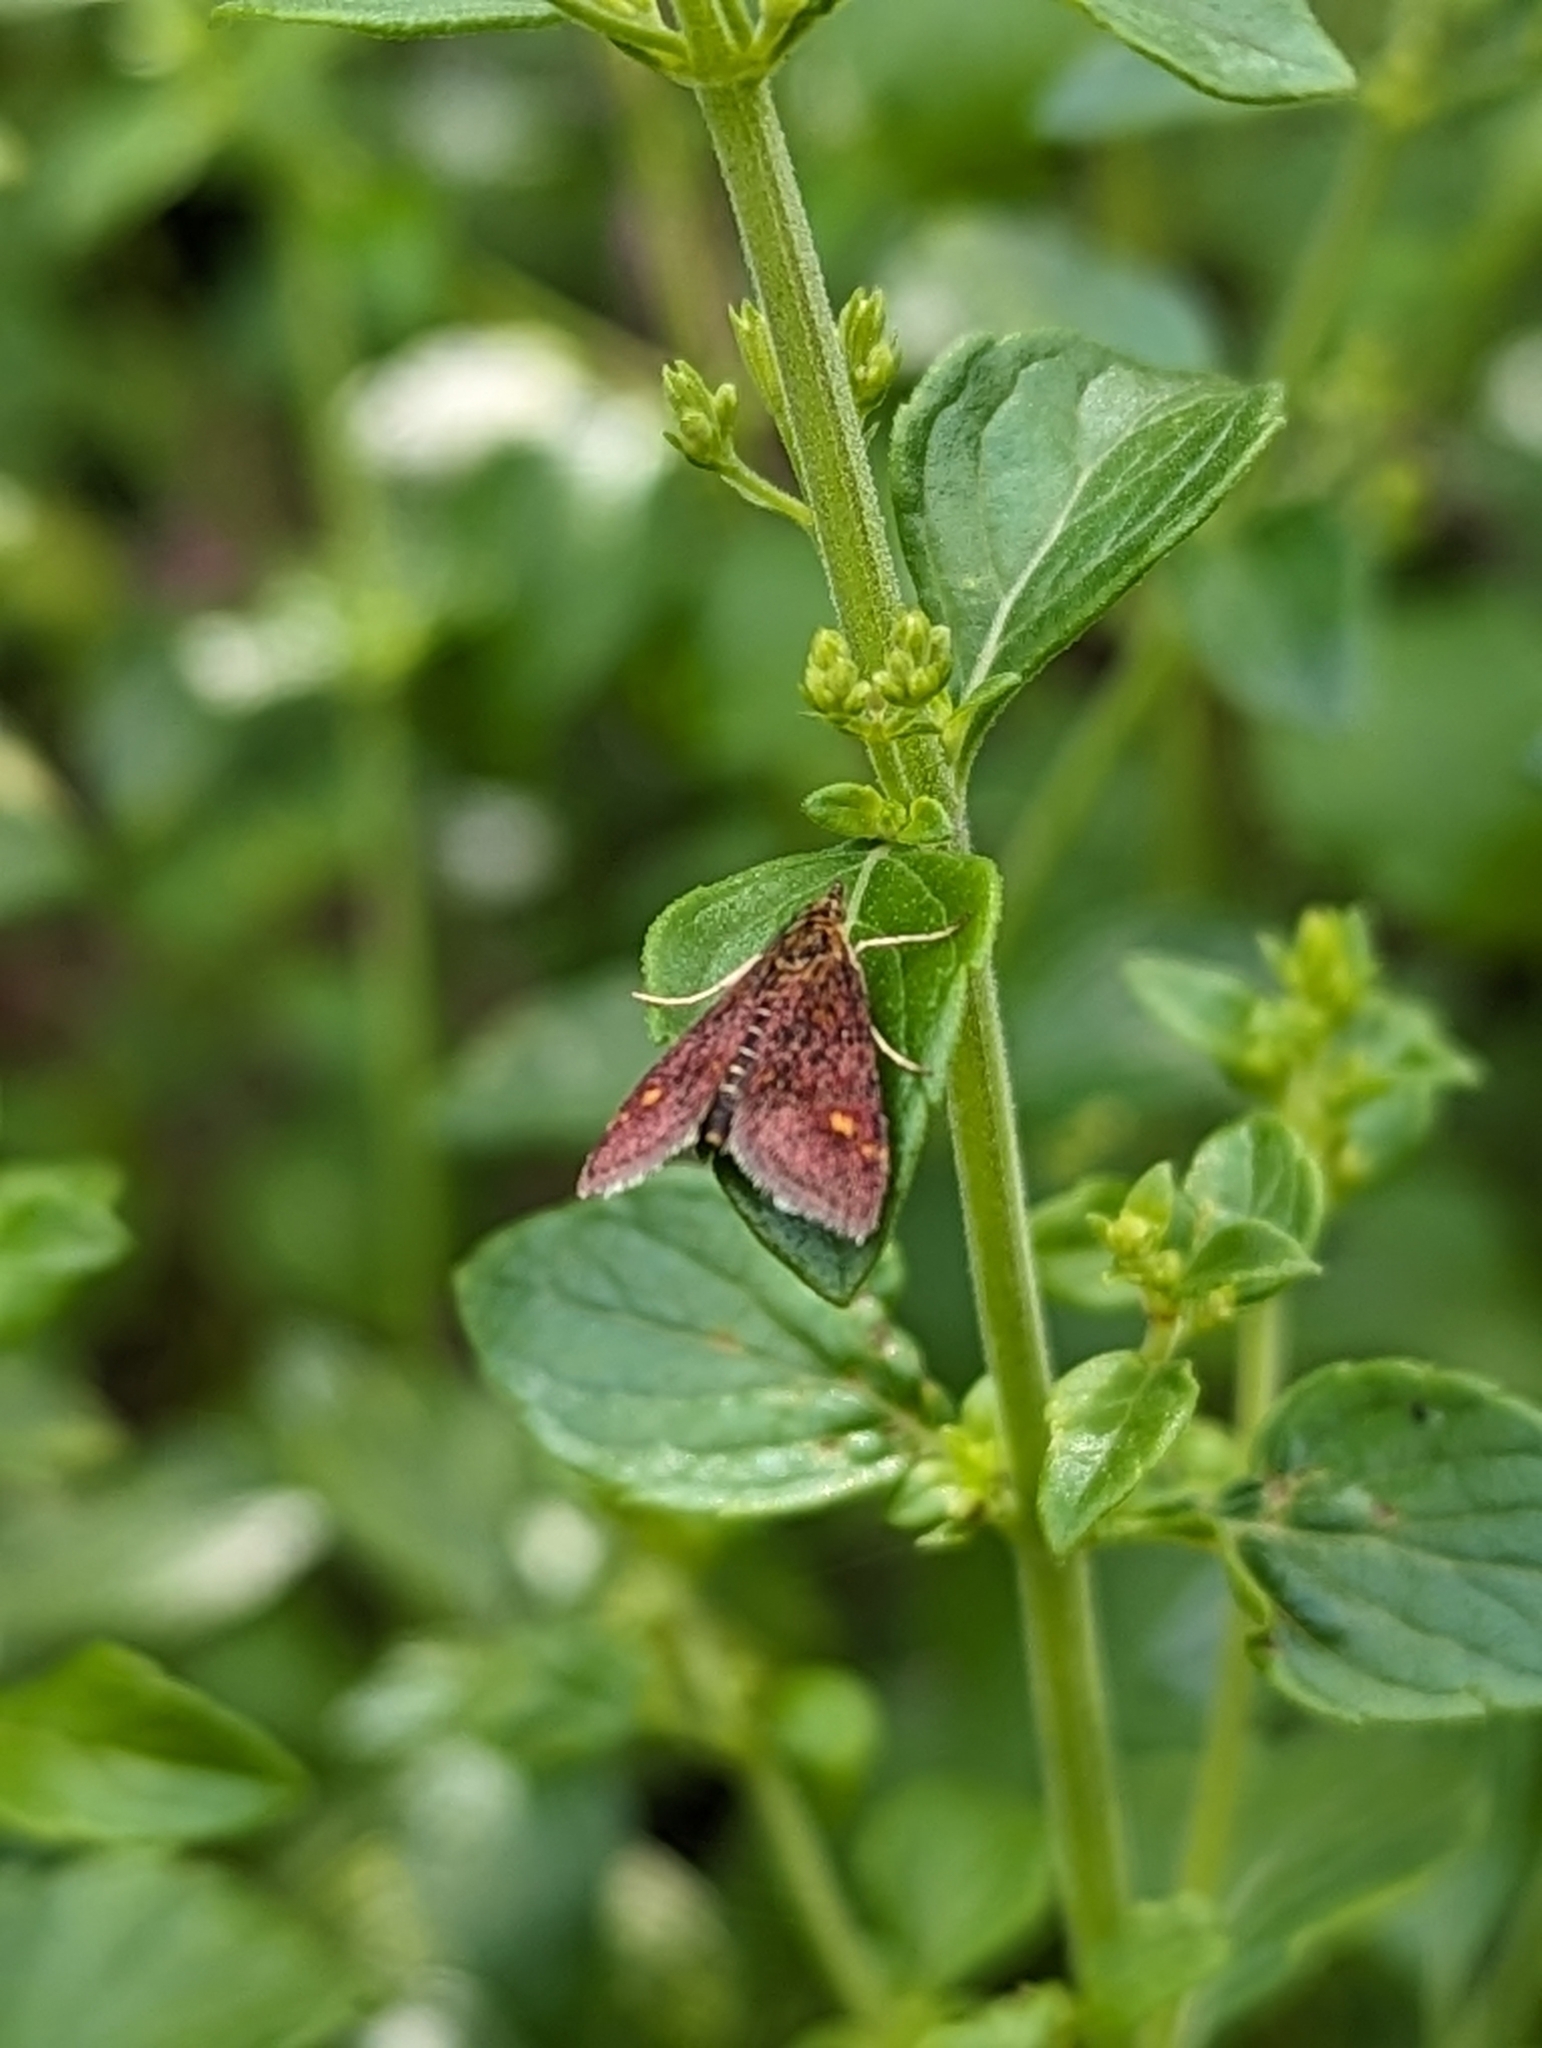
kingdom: Animalia
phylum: Arthropoda
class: Insecta
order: Lepidoptera
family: Crambidae
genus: Pyrausta
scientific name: Pyrausta aurata
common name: Small purple & gold
